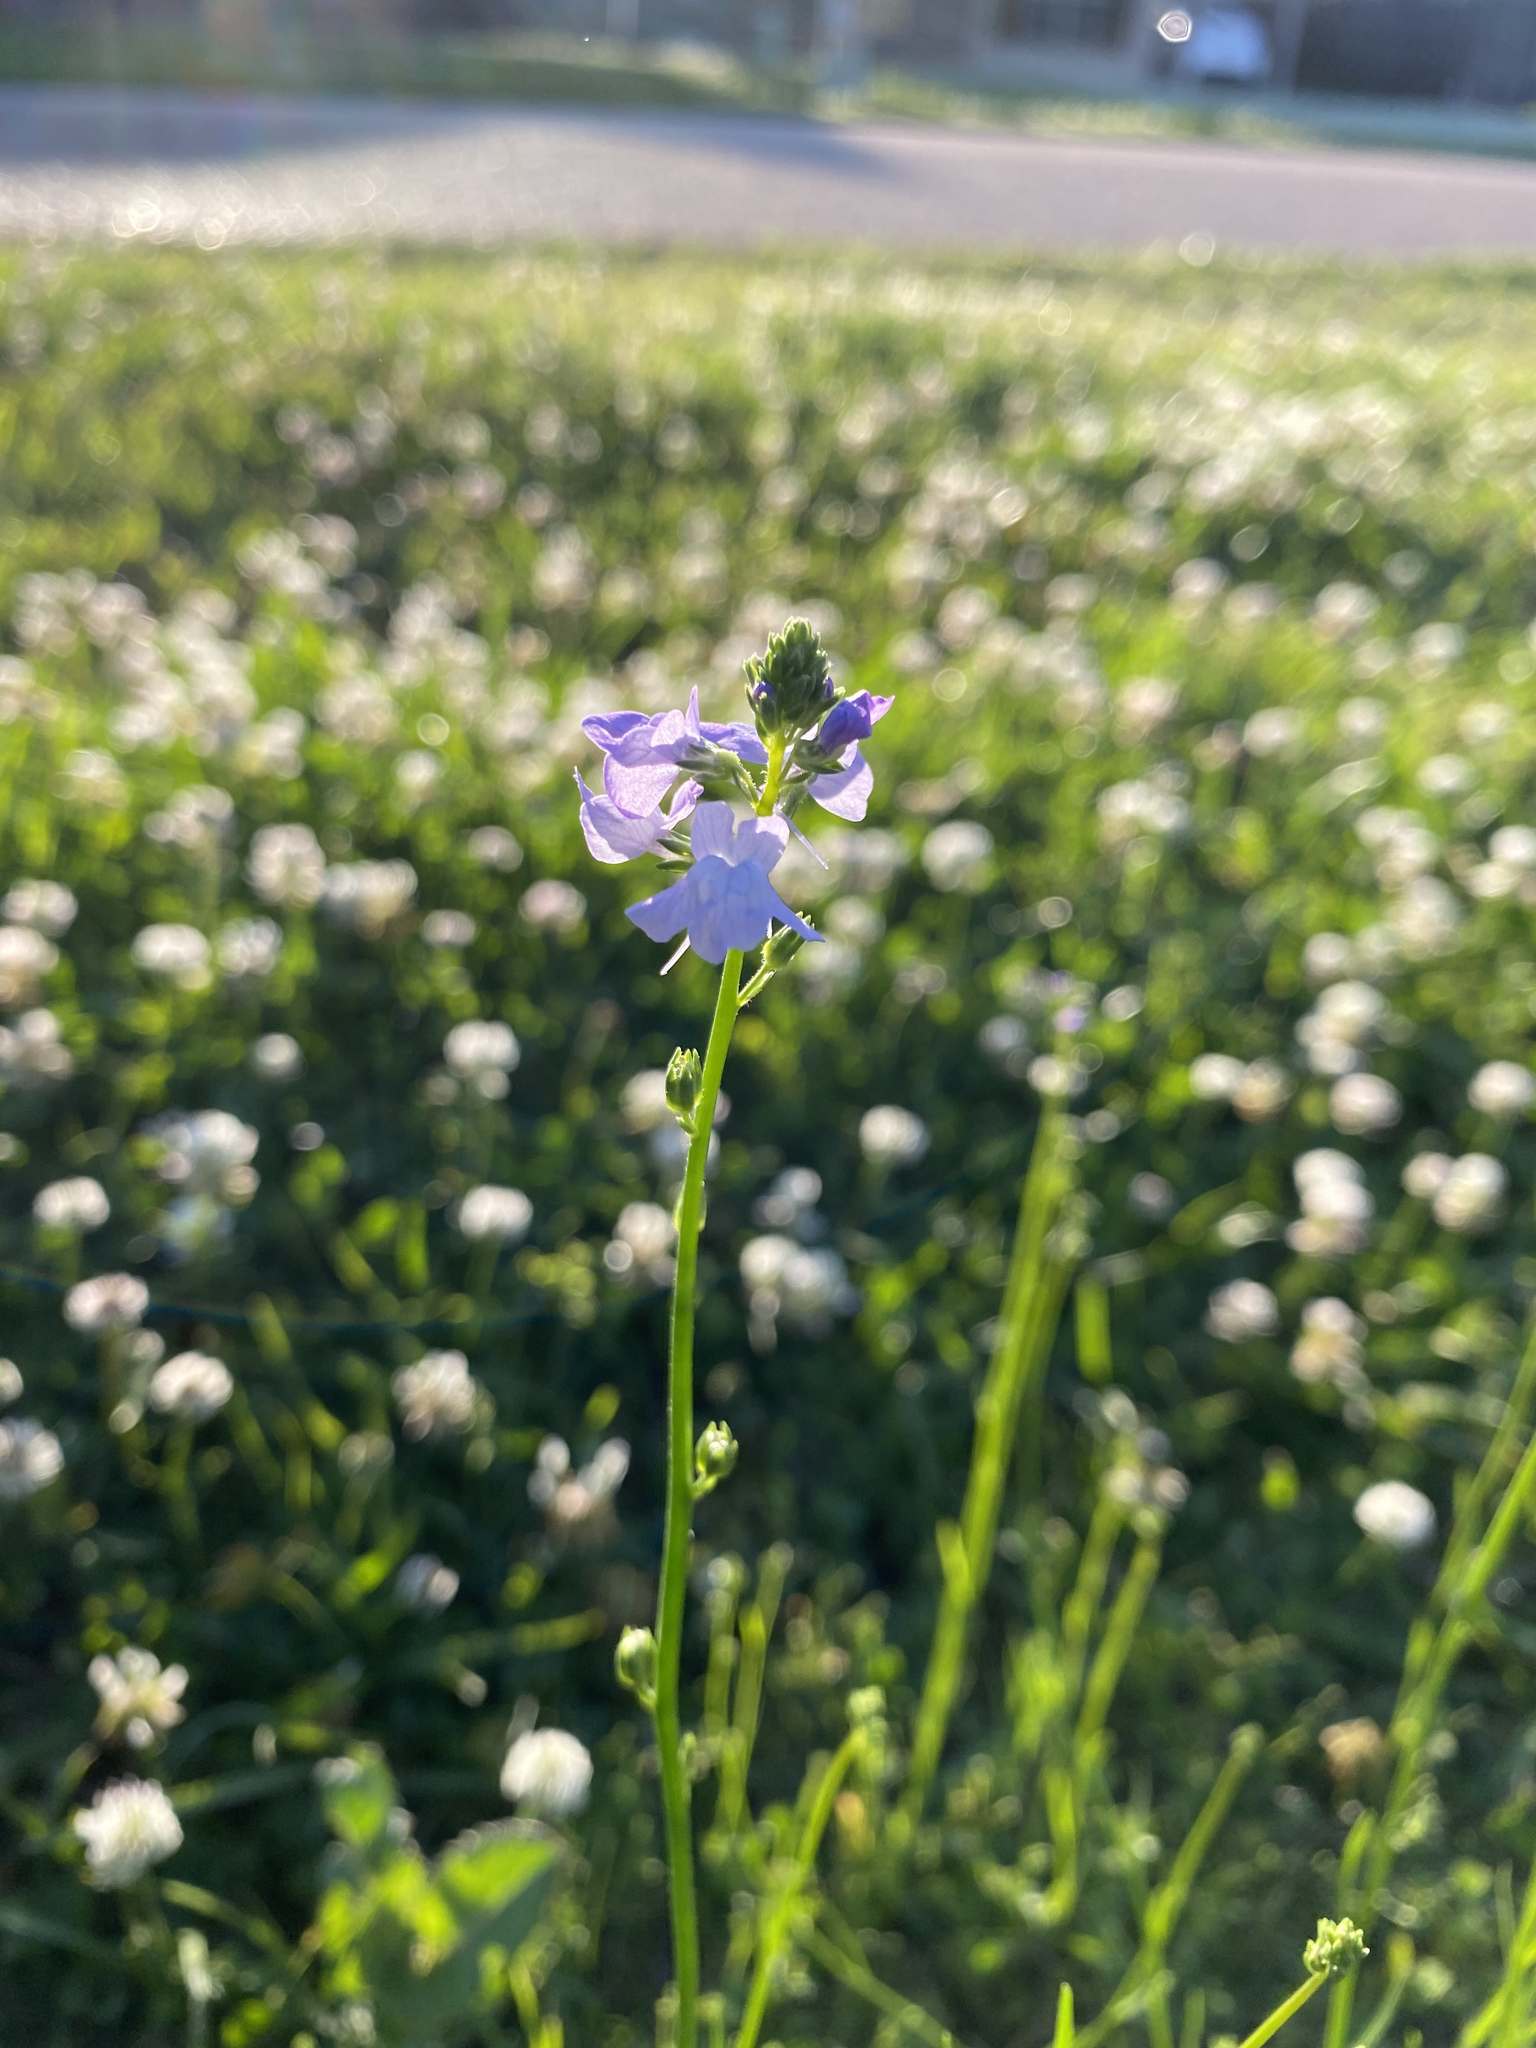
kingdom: Plantae
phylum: Tracheophyta
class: Magnoliopsida
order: Lamiales
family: Plantaginaceae
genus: Nuttallanthus
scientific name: Nuttallanthus texanus
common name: Texas toadflax
